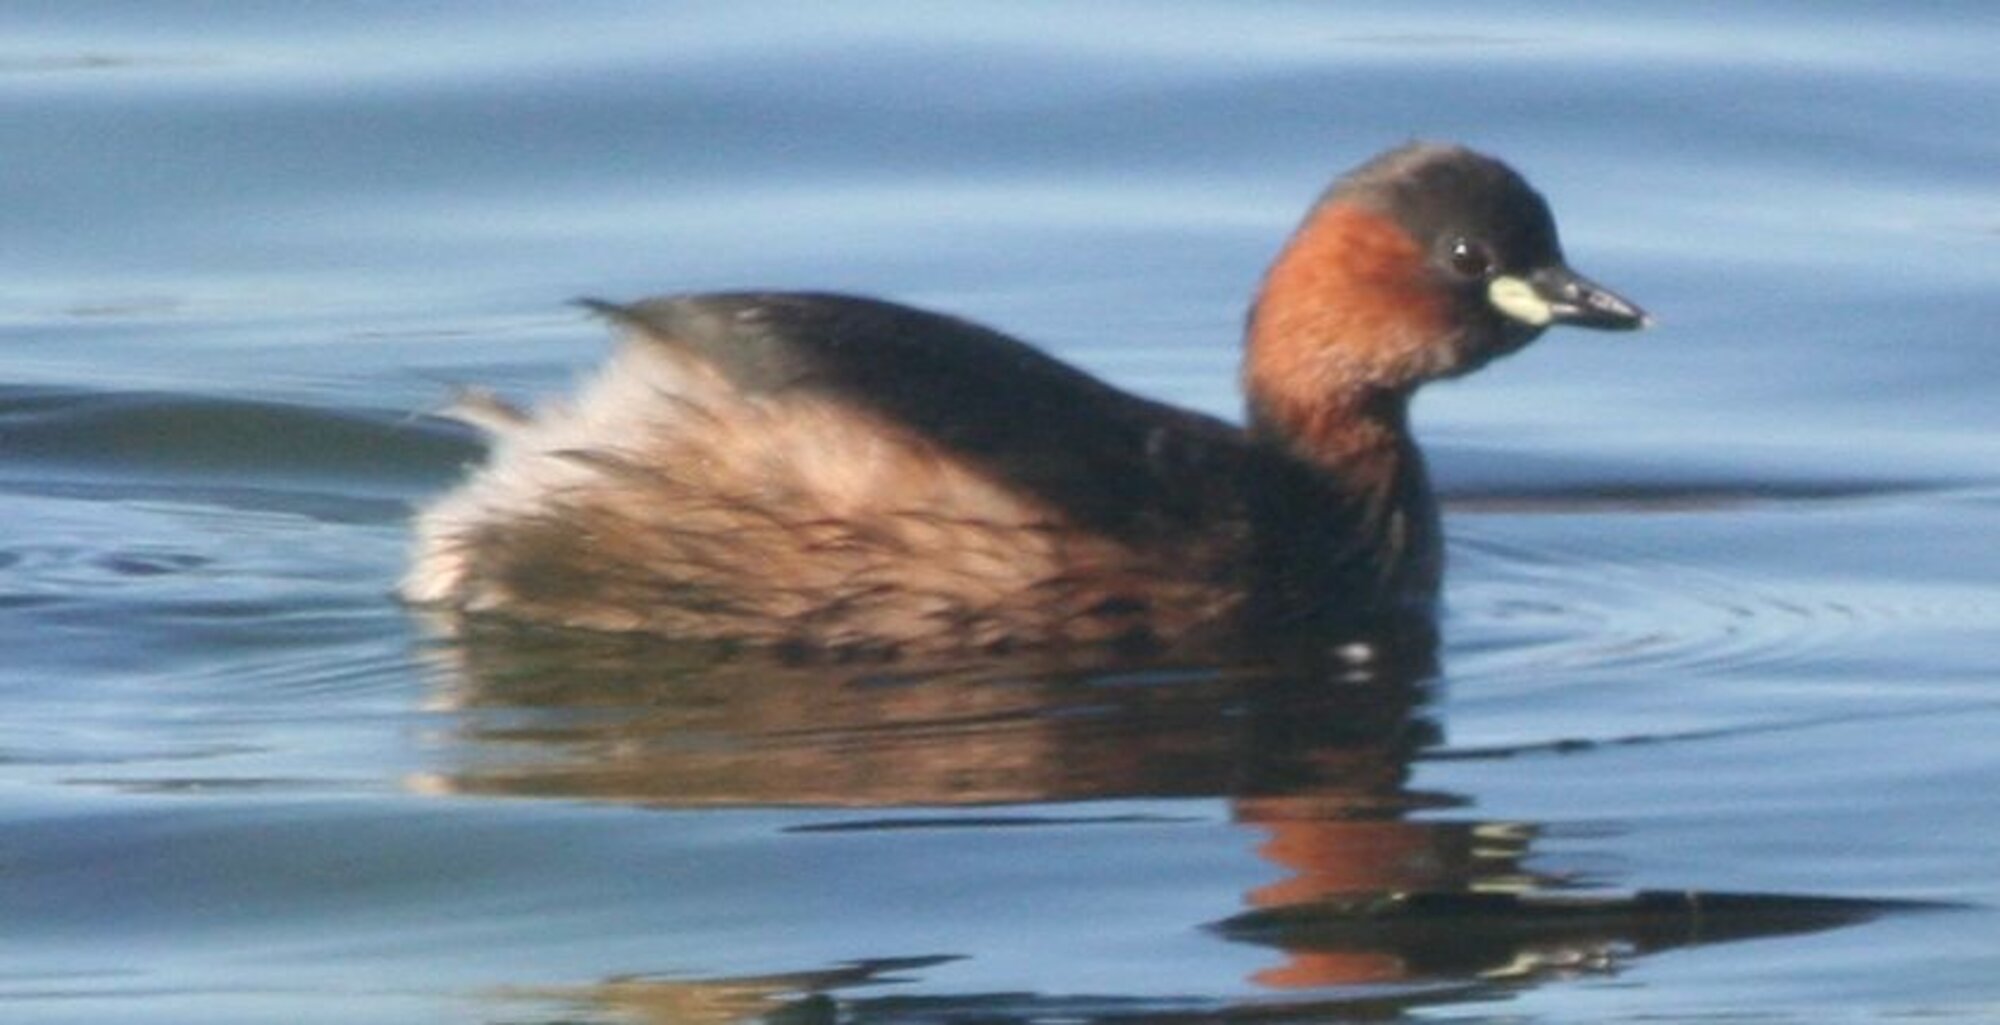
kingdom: Animalia
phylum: Chordata
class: Aves
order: Podicipediformes
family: Podicipedidae
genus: Tachybaptus
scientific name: Tachybaptus ruficollis
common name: Little grebe
